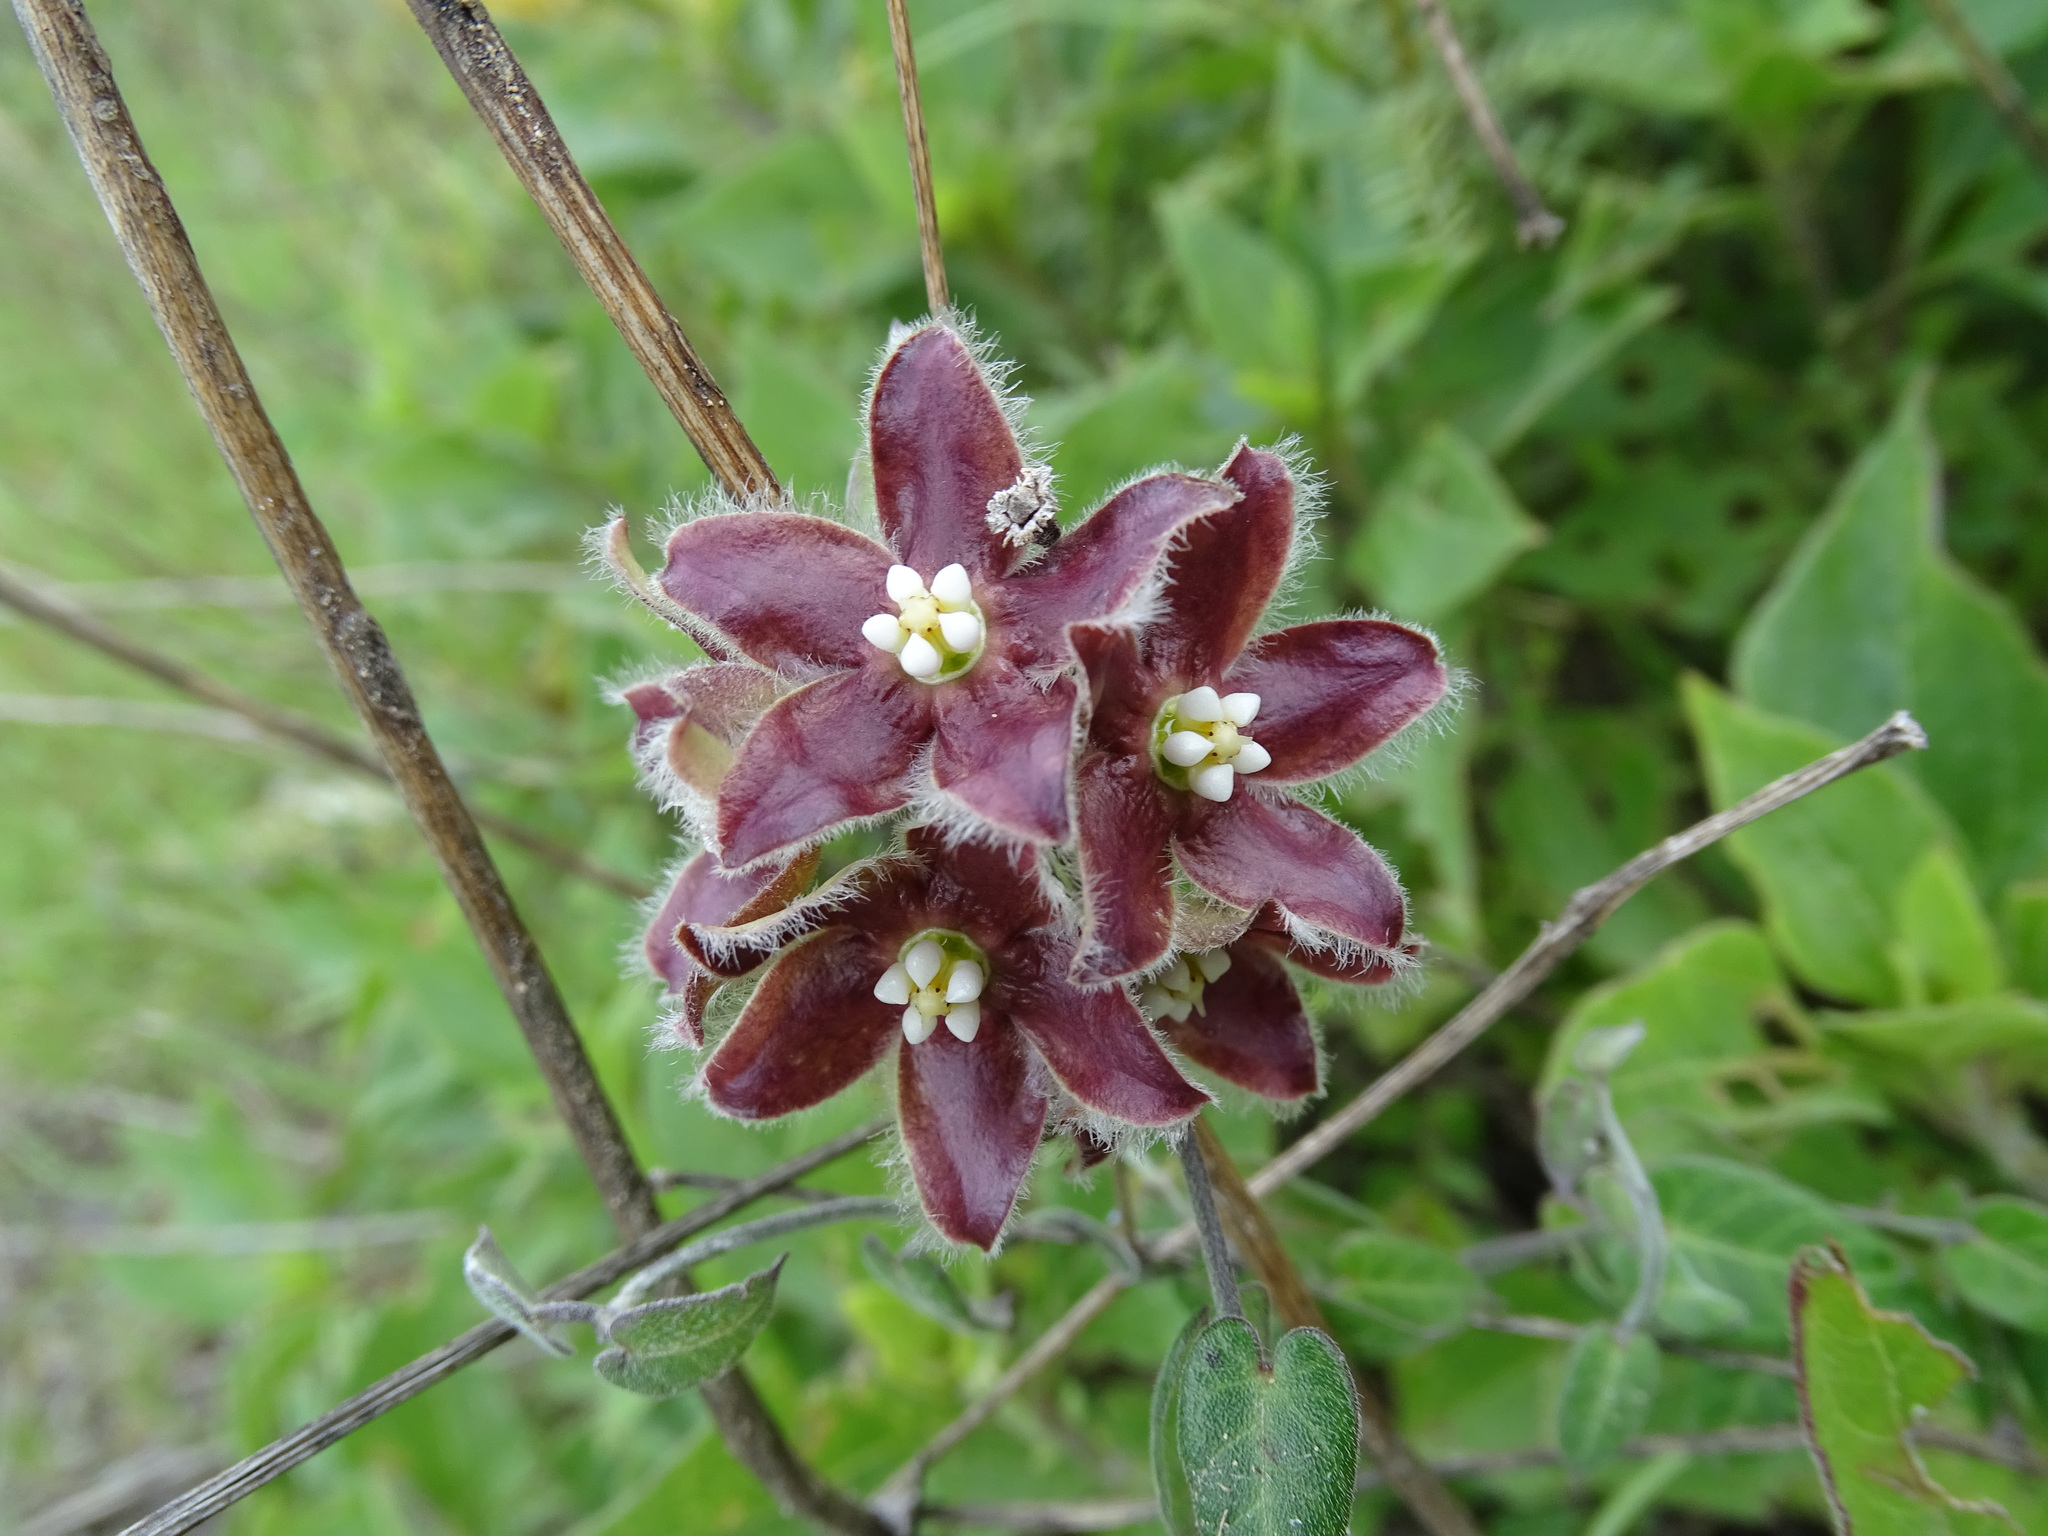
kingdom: Plantae
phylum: Tracheophyta
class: Magnoliopsida
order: Gentianales
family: Apocynaceae
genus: Funastrum
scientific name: Funastrum elegans
